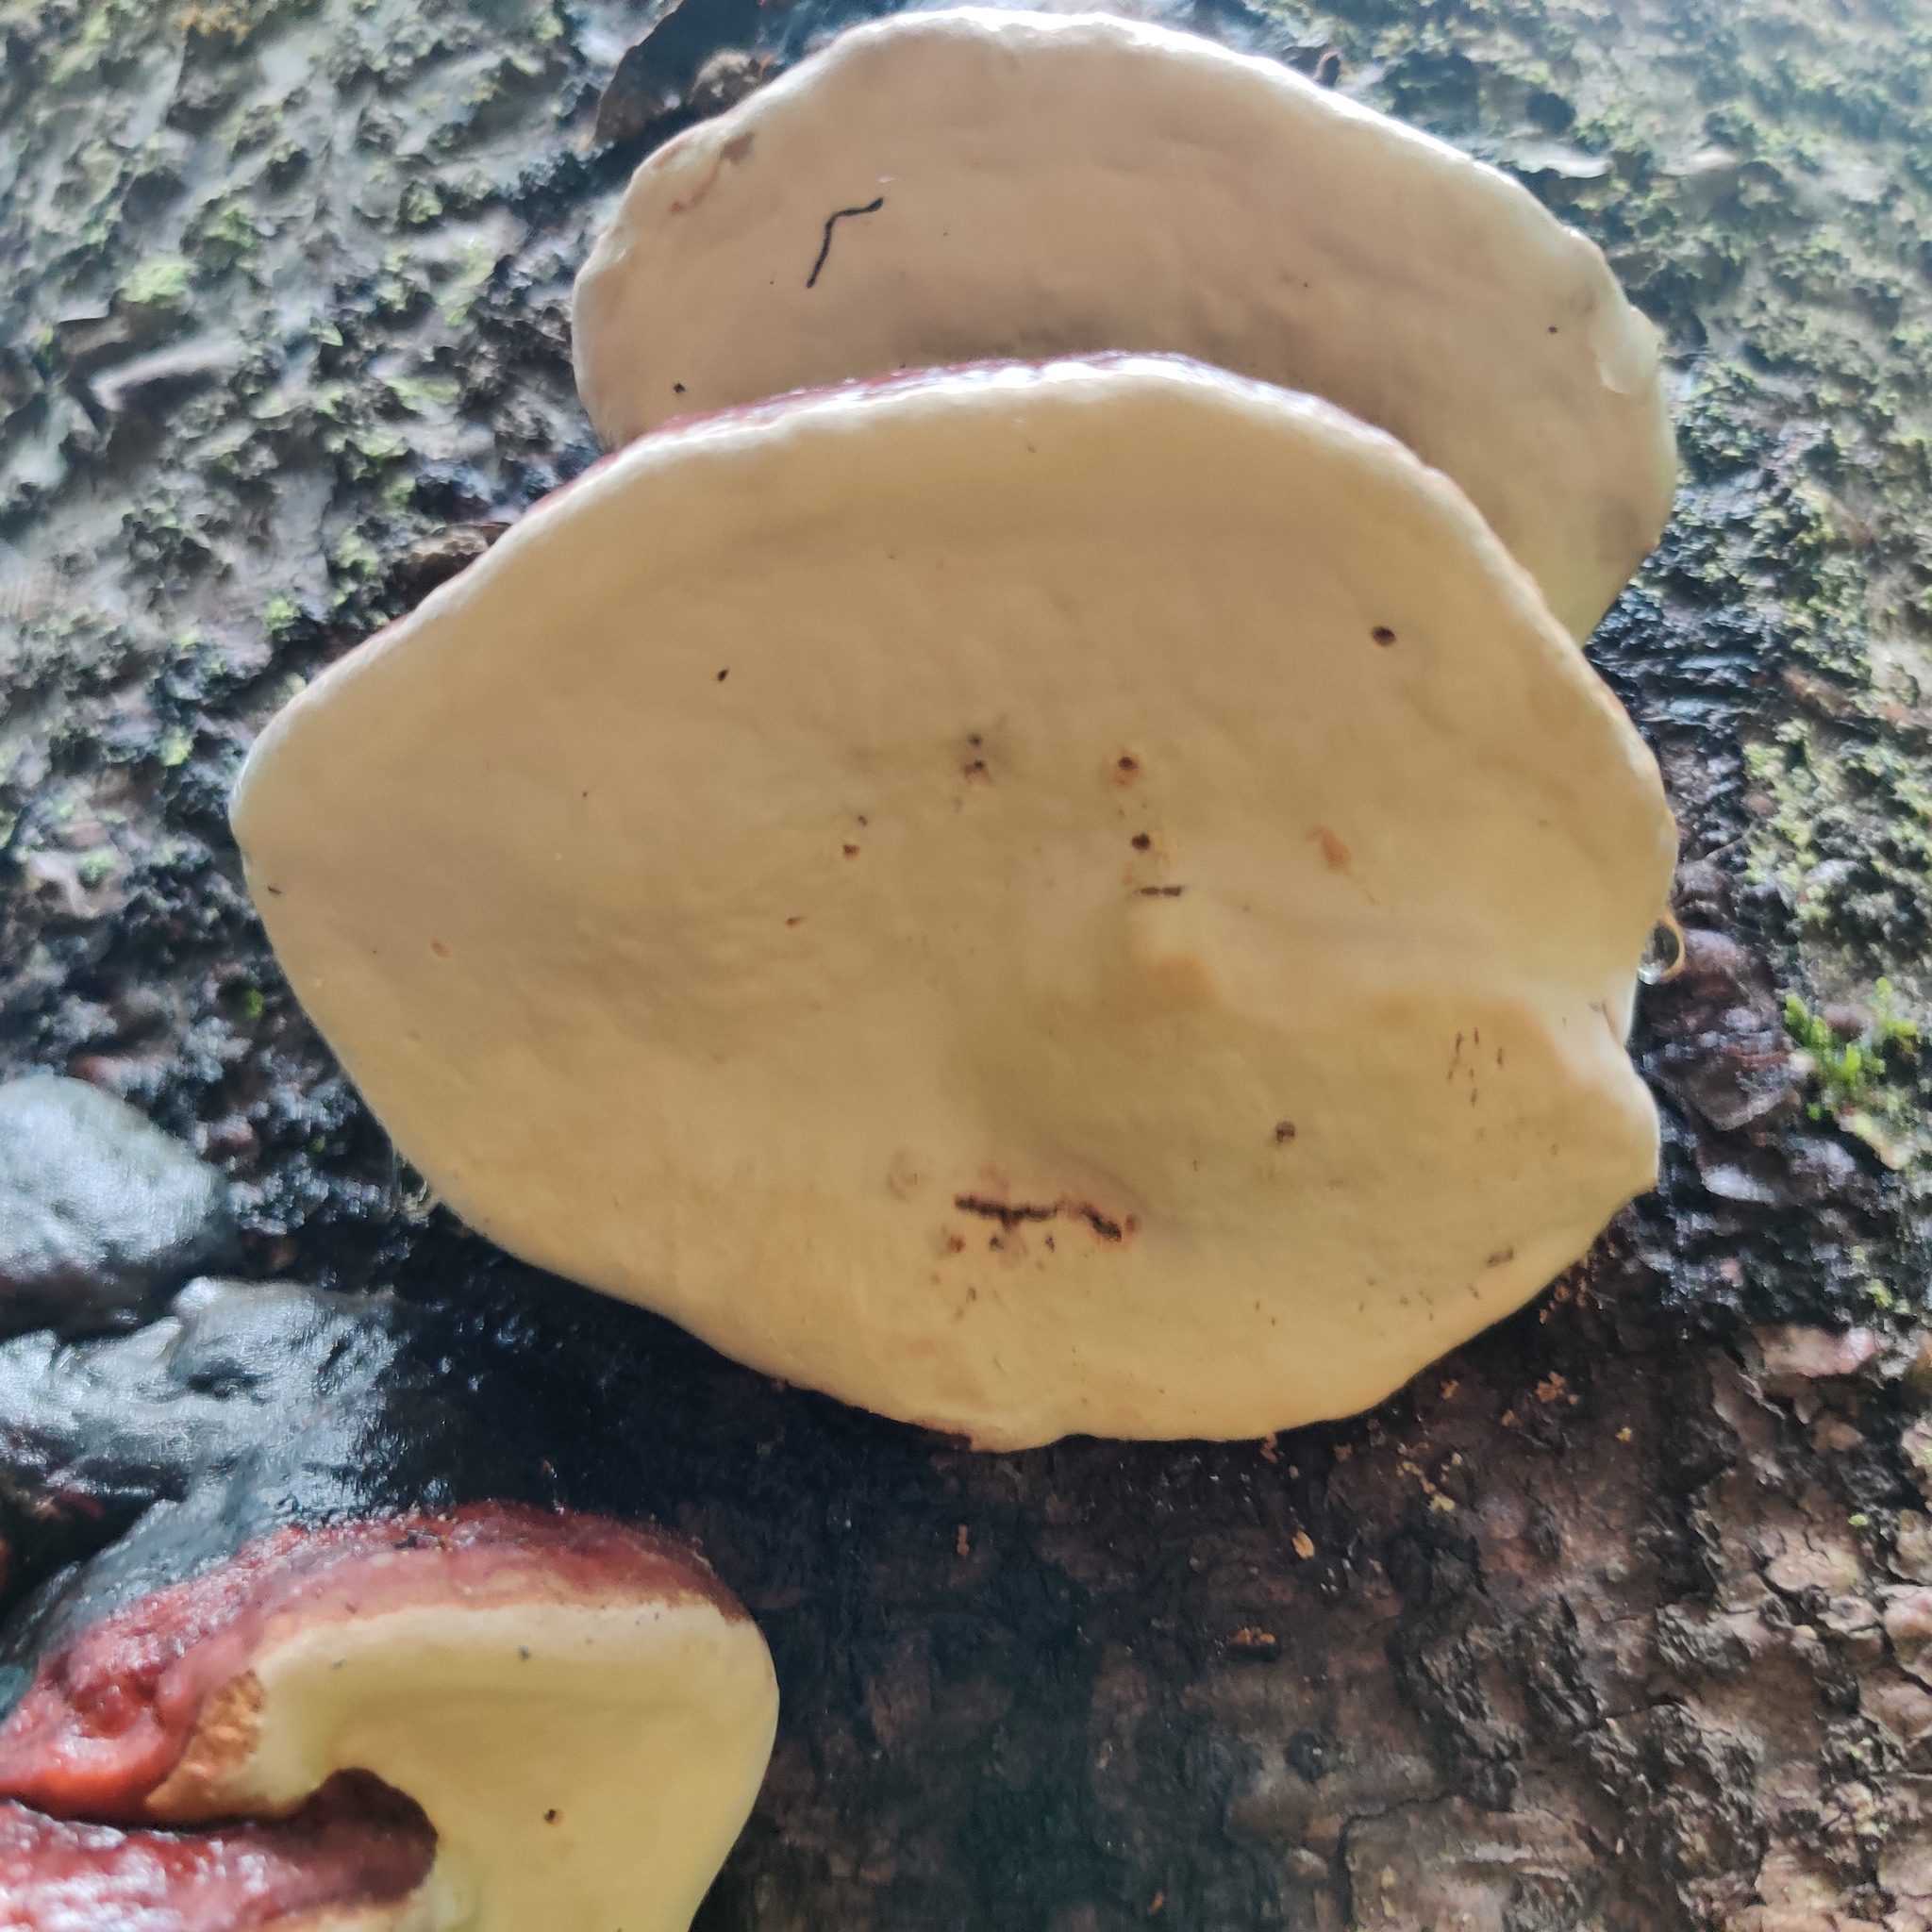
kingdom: Fungi
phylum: Basidiomycota
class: Agaricomycetes
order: Polyporales
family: Fomitopsidaceae
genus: Fomitopsis
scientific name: Fomitopsis mounceae
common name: Northern red belt
